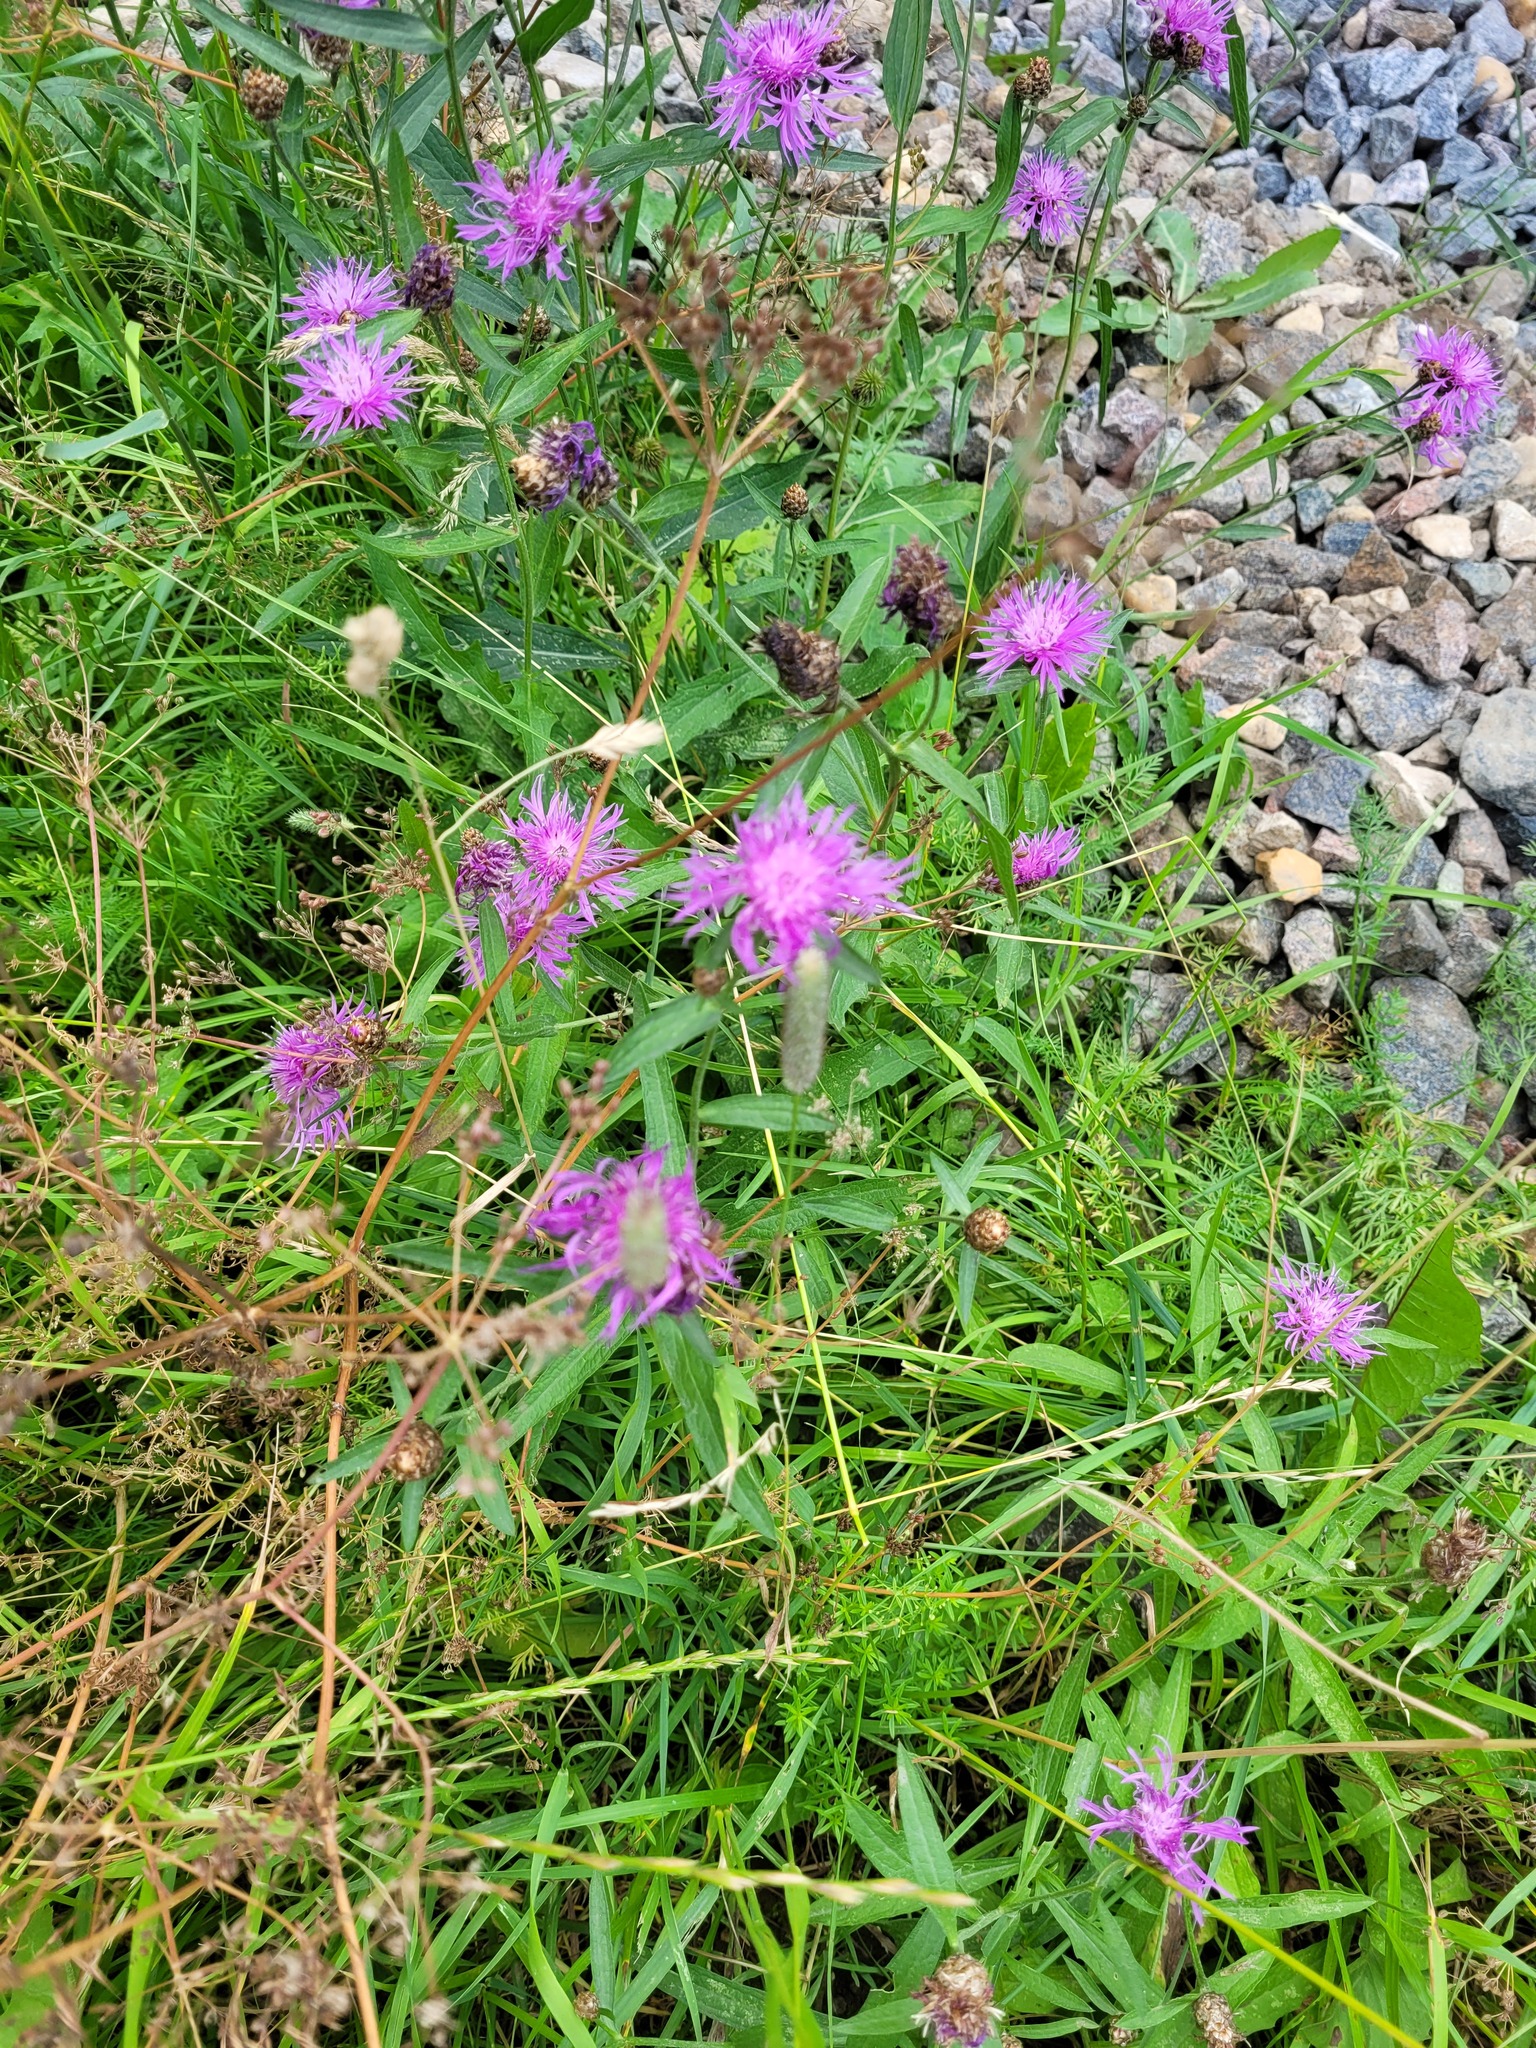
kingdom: Plantae
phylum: Tracheophyta
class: Magnoliopsida
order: Asterales
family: Asteraceae
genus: Centaurea
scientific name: Centaurea jacea
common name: Brown knapweed
